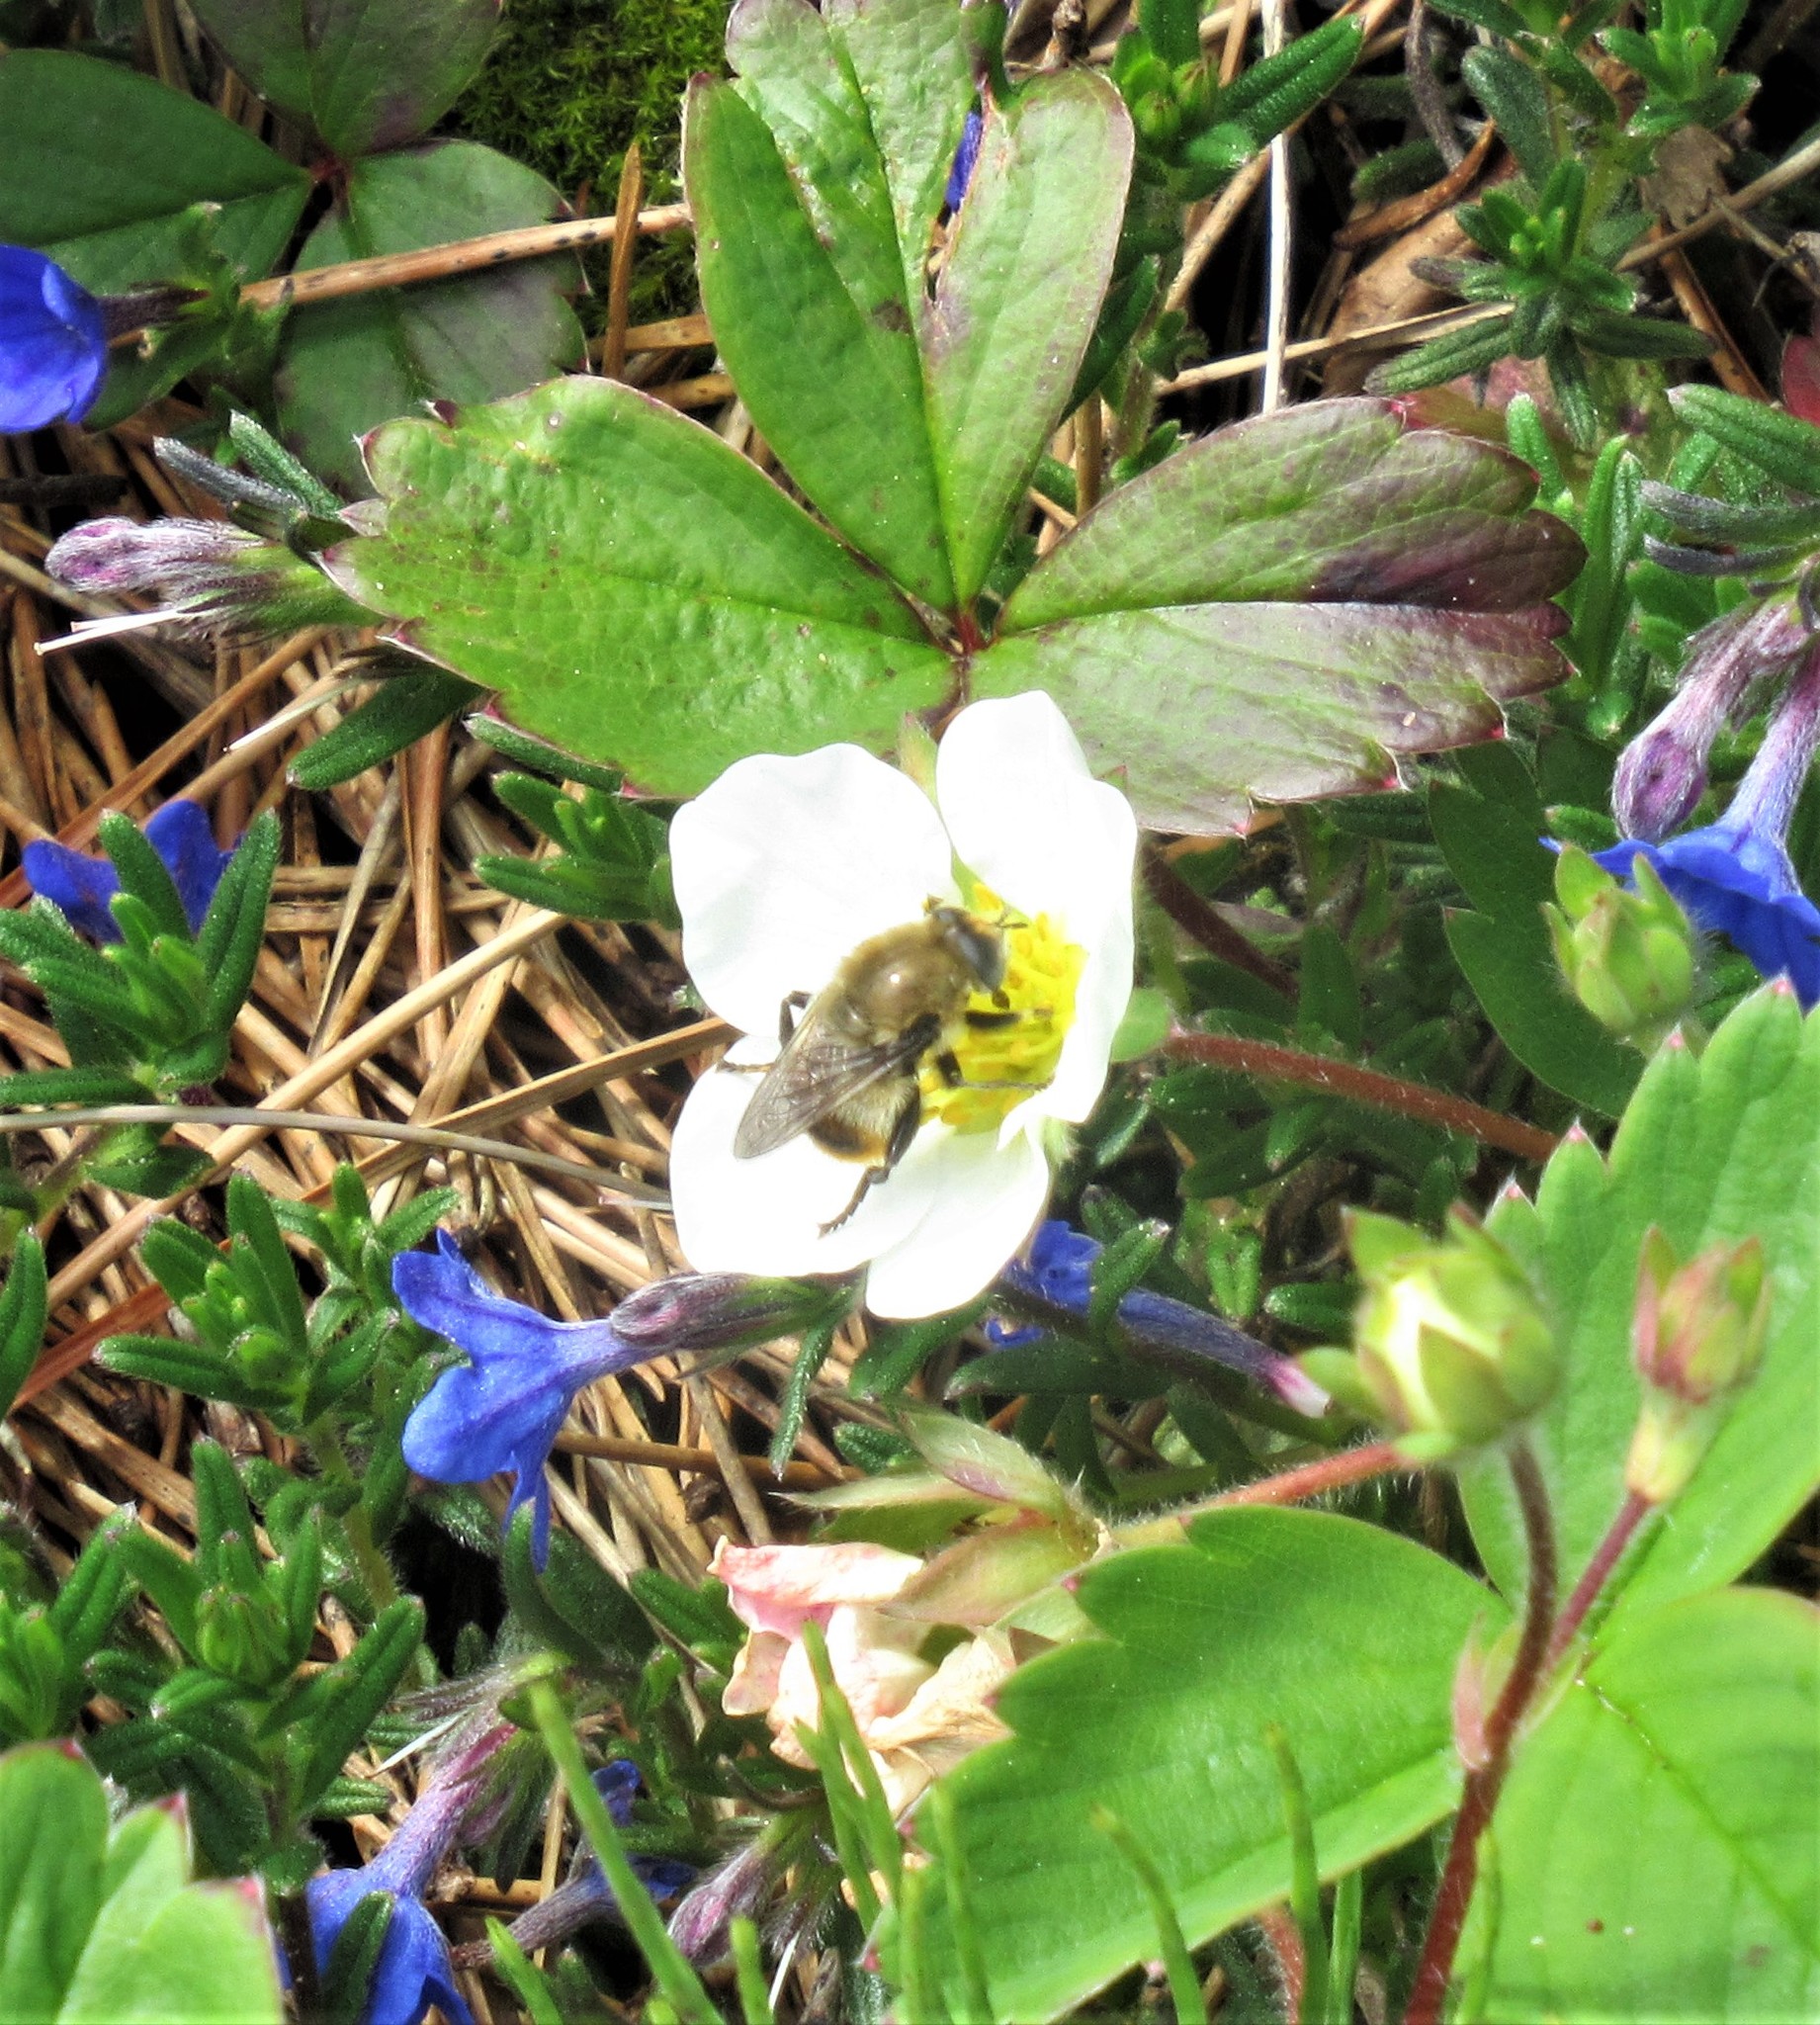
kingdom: Animalia
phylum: Arthropoda
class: Insecta
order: Diptera
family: Syrphidae
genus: Merodon
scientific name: Merodon equestris
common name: Greater bulb-fly
